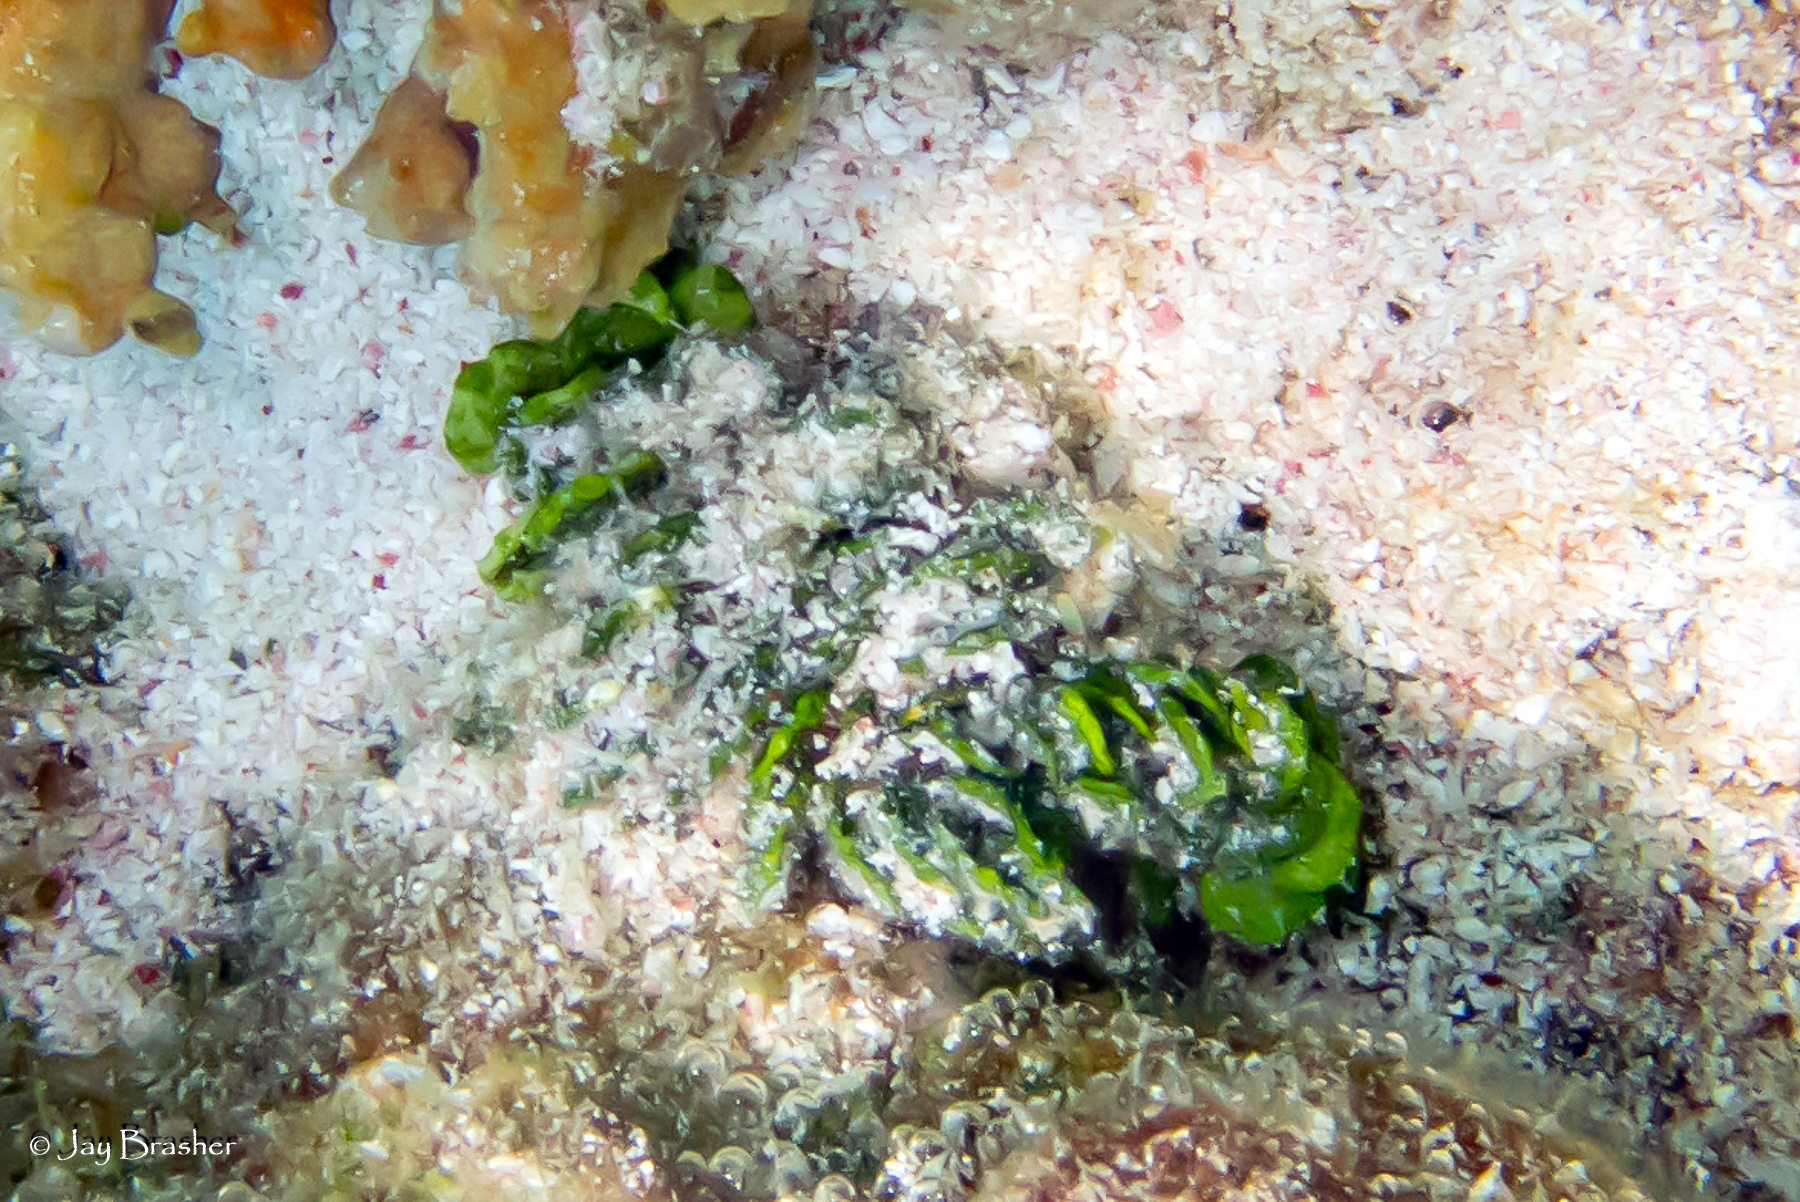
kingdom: Plantae
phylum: Chlorophyta
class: Ulvophyceae
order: Bryopsidales
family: Halimedaceae
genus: Halimeda
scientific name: Halimeda opuntia
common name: Watercress algae
